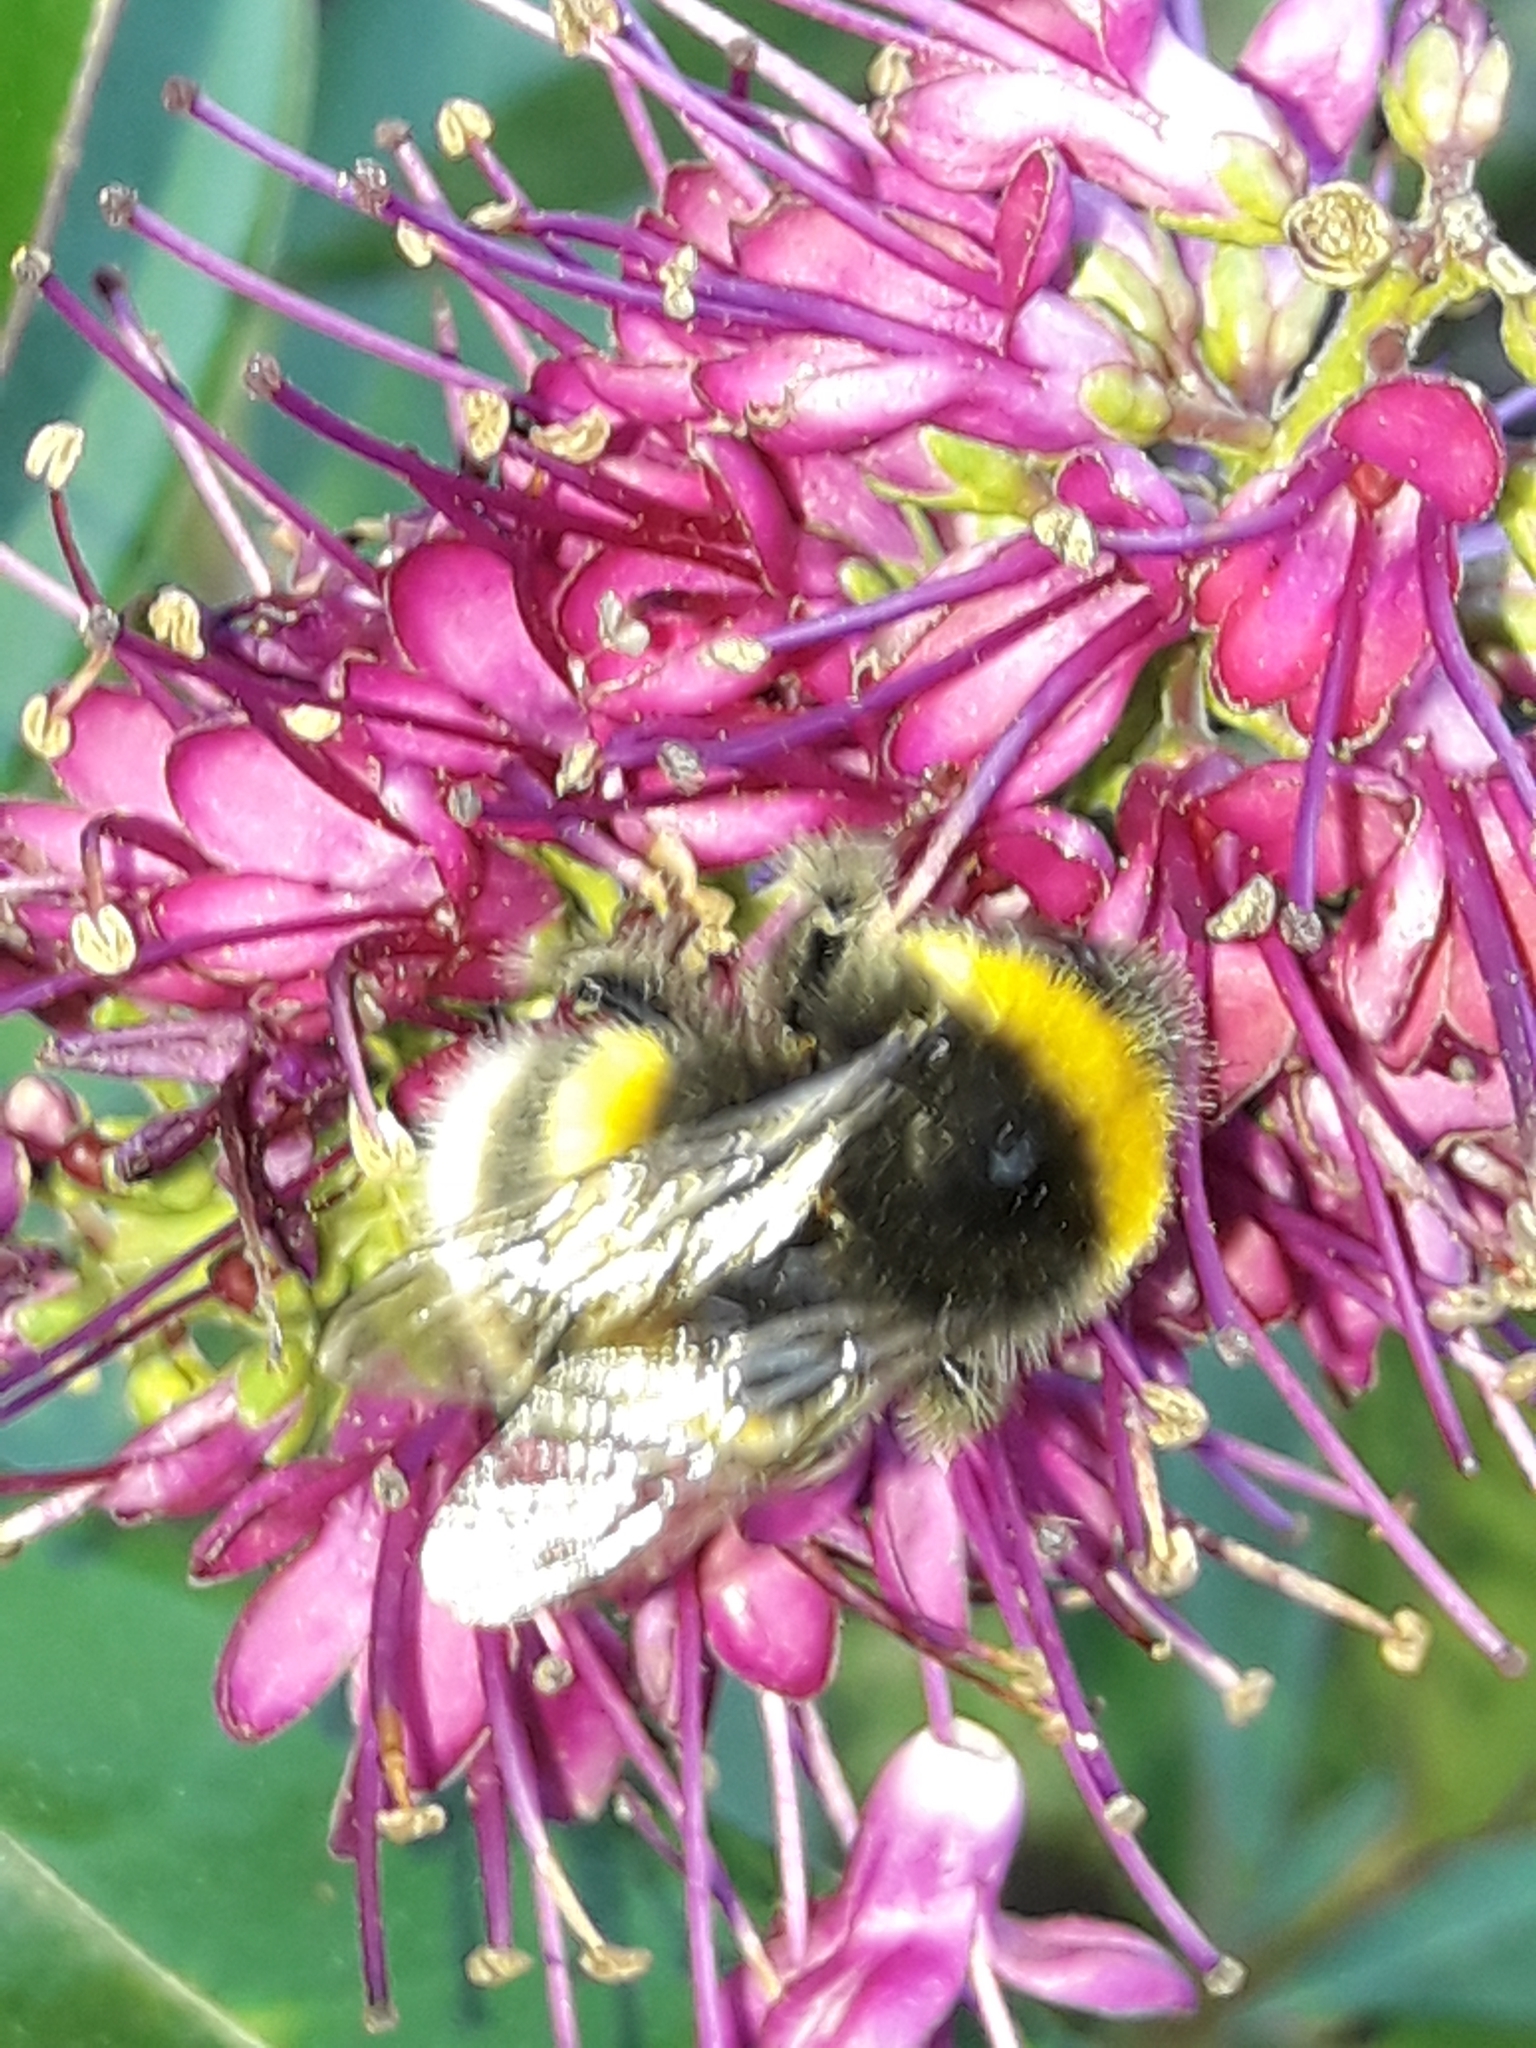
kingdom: Animalia
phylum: Arthropoda
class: Insecta
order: Hymenoptera
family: Apidae
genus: Bombus
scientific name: Bombus terrestris
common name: Buff-tailed bumblebee
